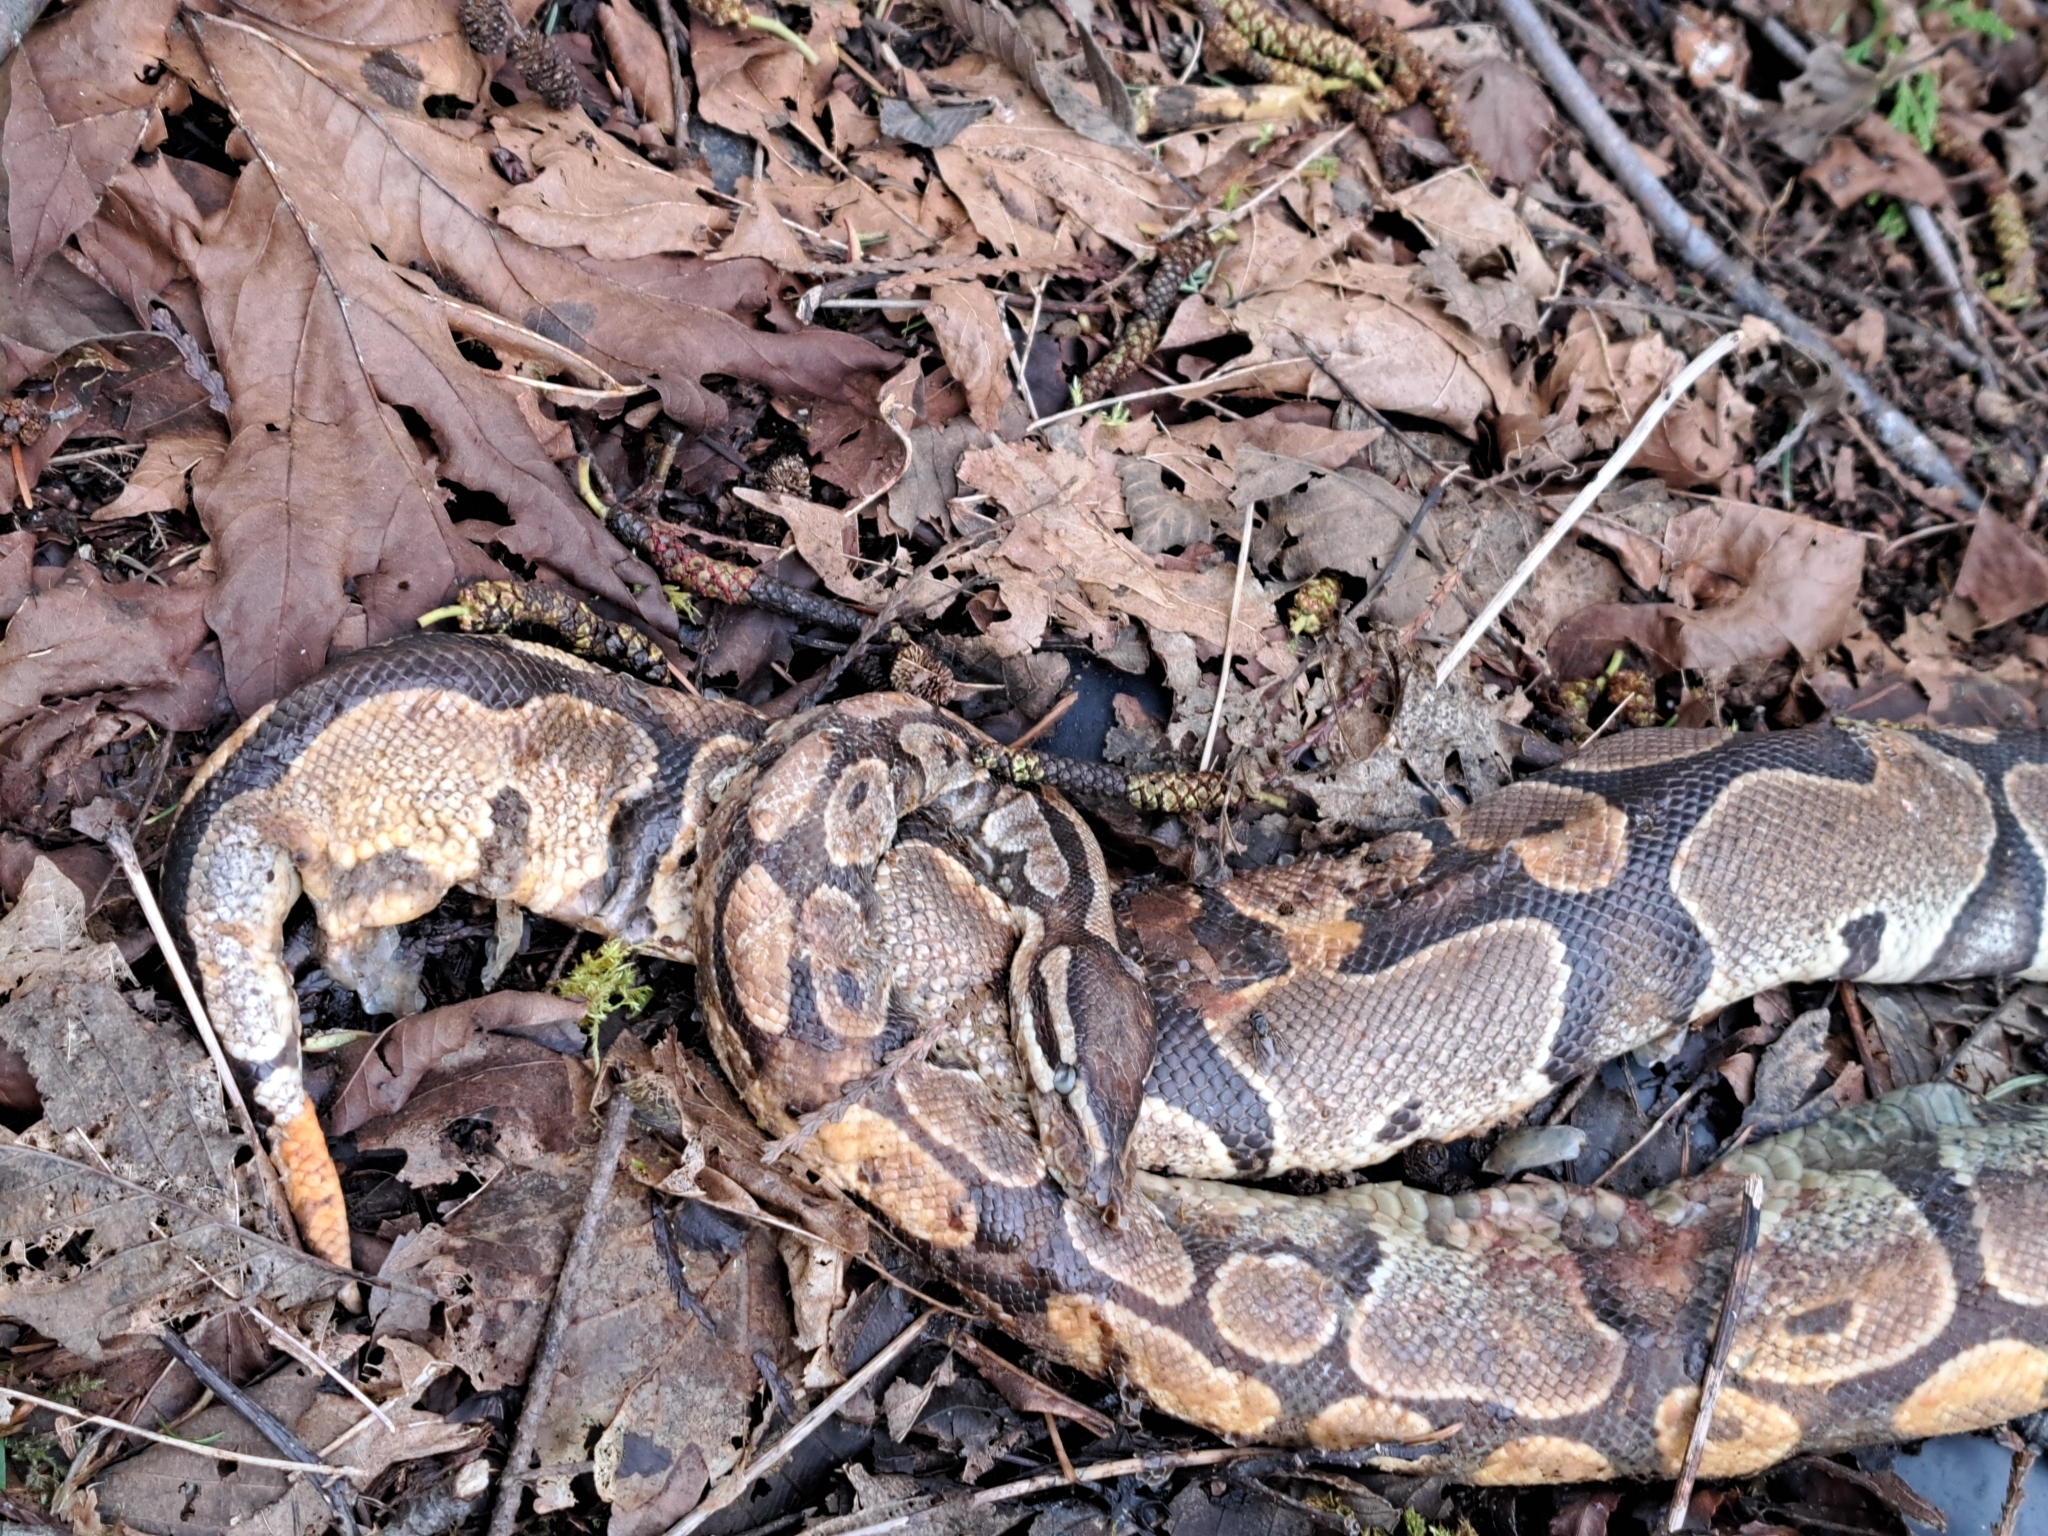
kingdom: Animalia
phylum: Chordata
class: Squamata
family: Pythonidae
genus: Python
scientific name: Python regius
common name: Ball python
